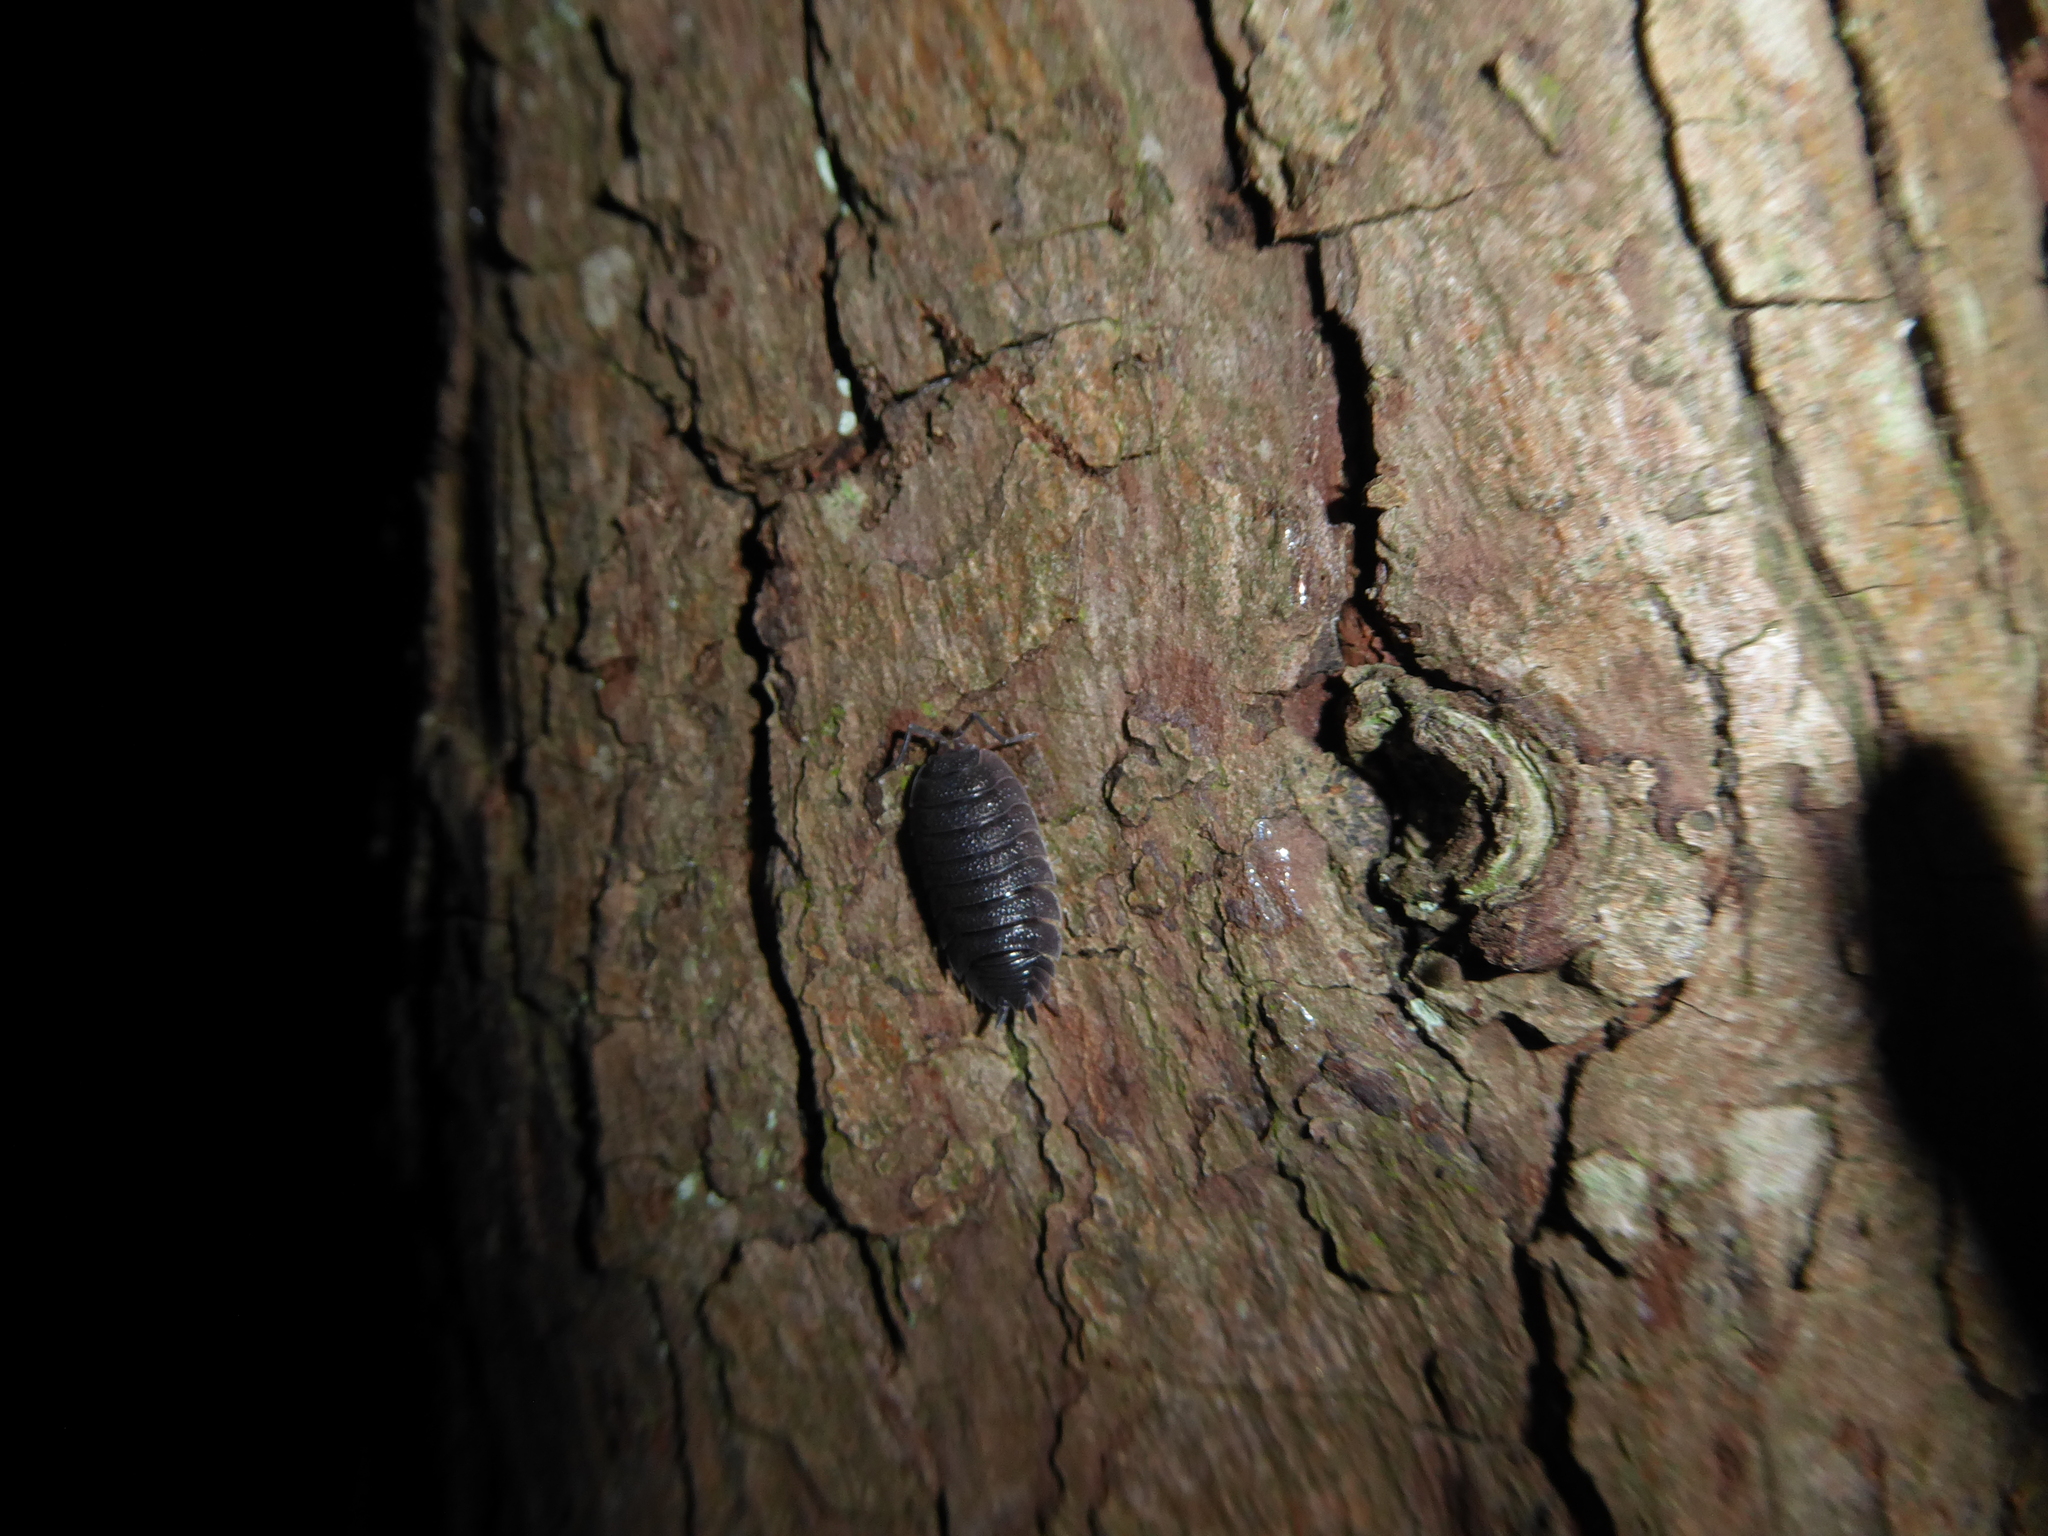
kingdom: Animalia
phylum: Arthropoda
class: Malacostraca
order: Isopoda
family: Porcellionidae
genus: Porcellio
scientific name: Porcellio scaber
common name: Common rough woodlouse
